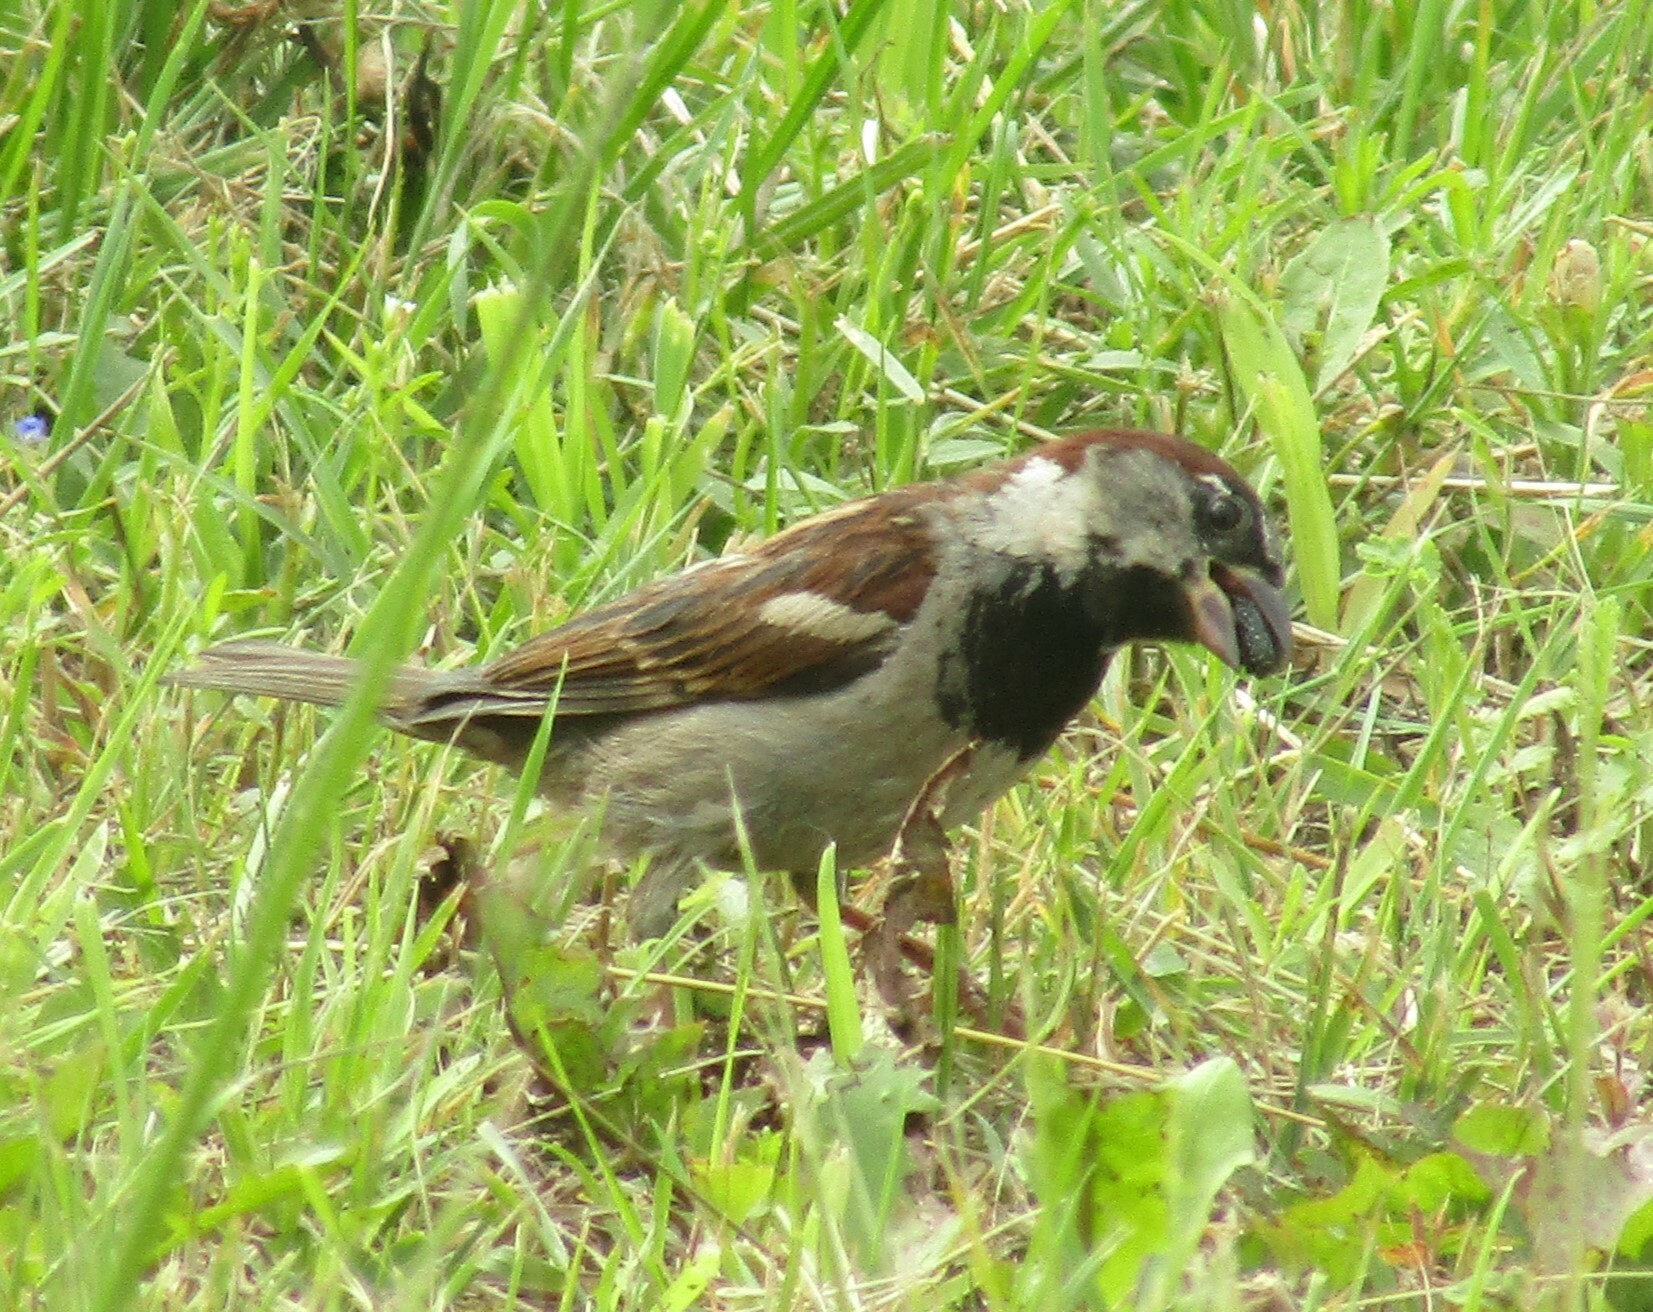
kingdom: Animalia
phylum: Chordata
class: Aves
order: Passeriformes
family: Passeridae
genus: Passer
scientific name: Passer domesticus
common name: House sparrow
